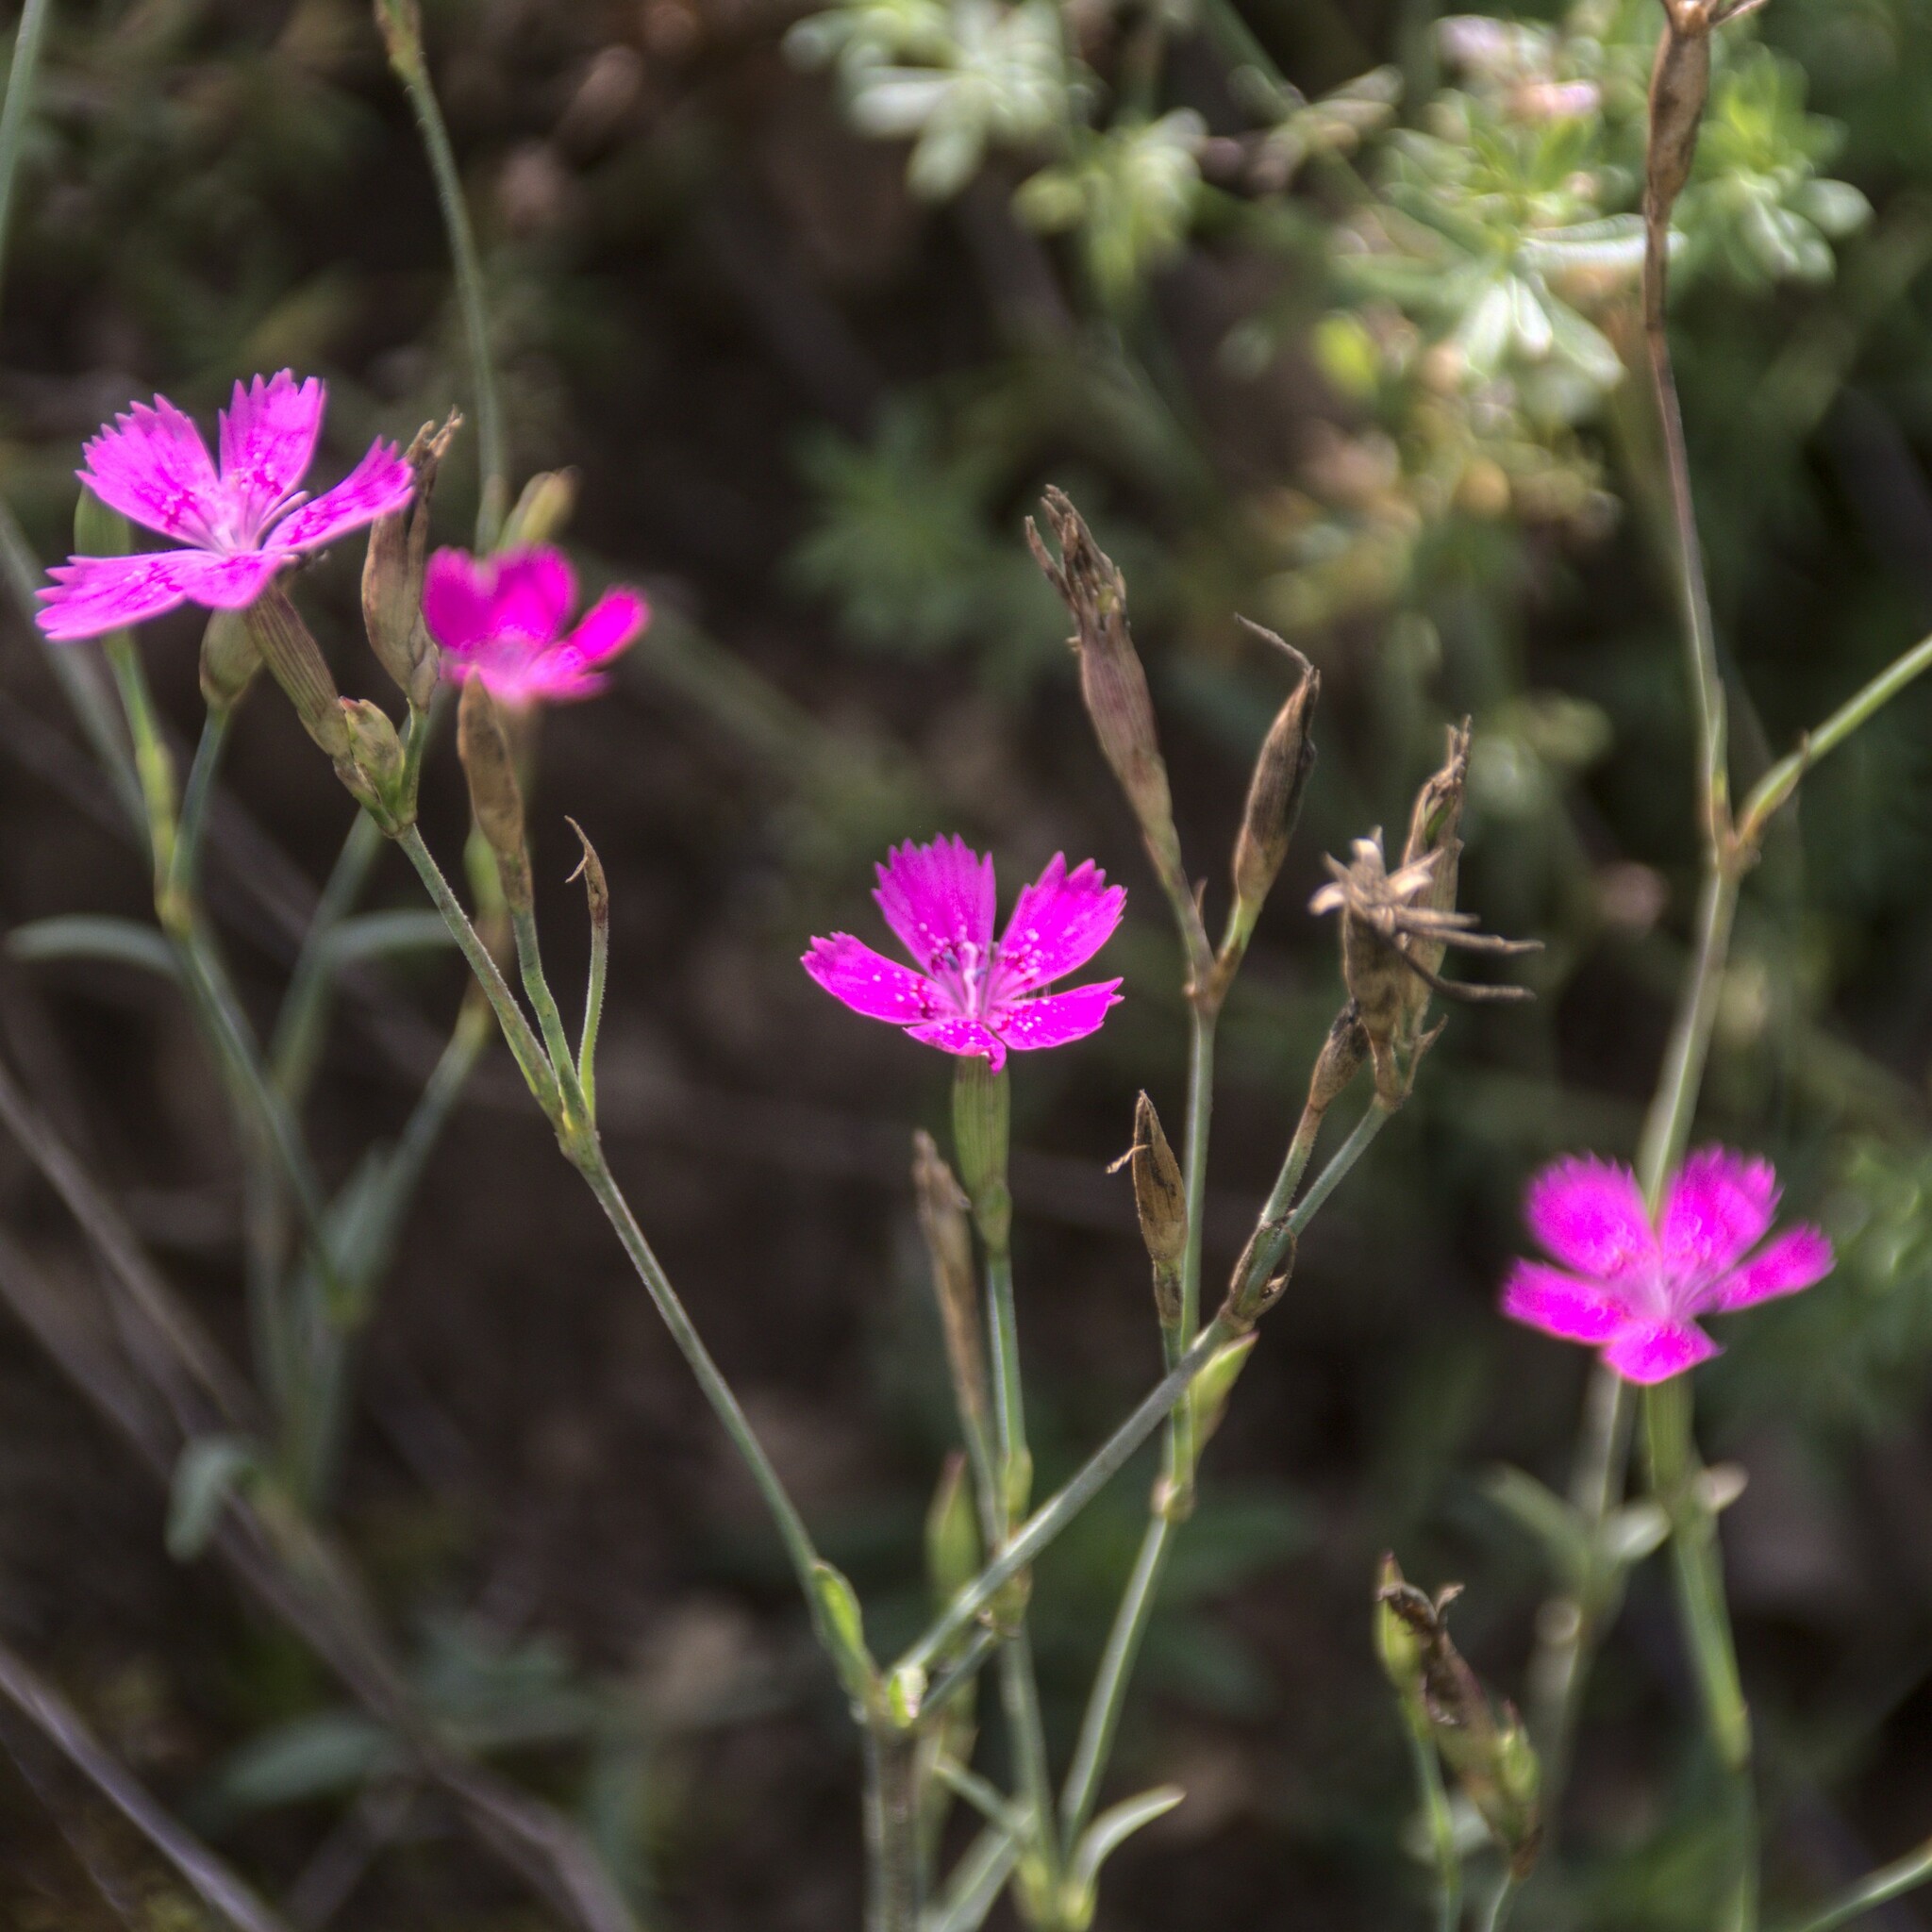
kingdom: Plantae
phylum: Tracheophyta
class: Magnoliopsida
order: Caryophyllales
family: Caryophyllaceae
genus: Dianthus
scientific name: Dianthus deltoides
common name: Maiden pink
